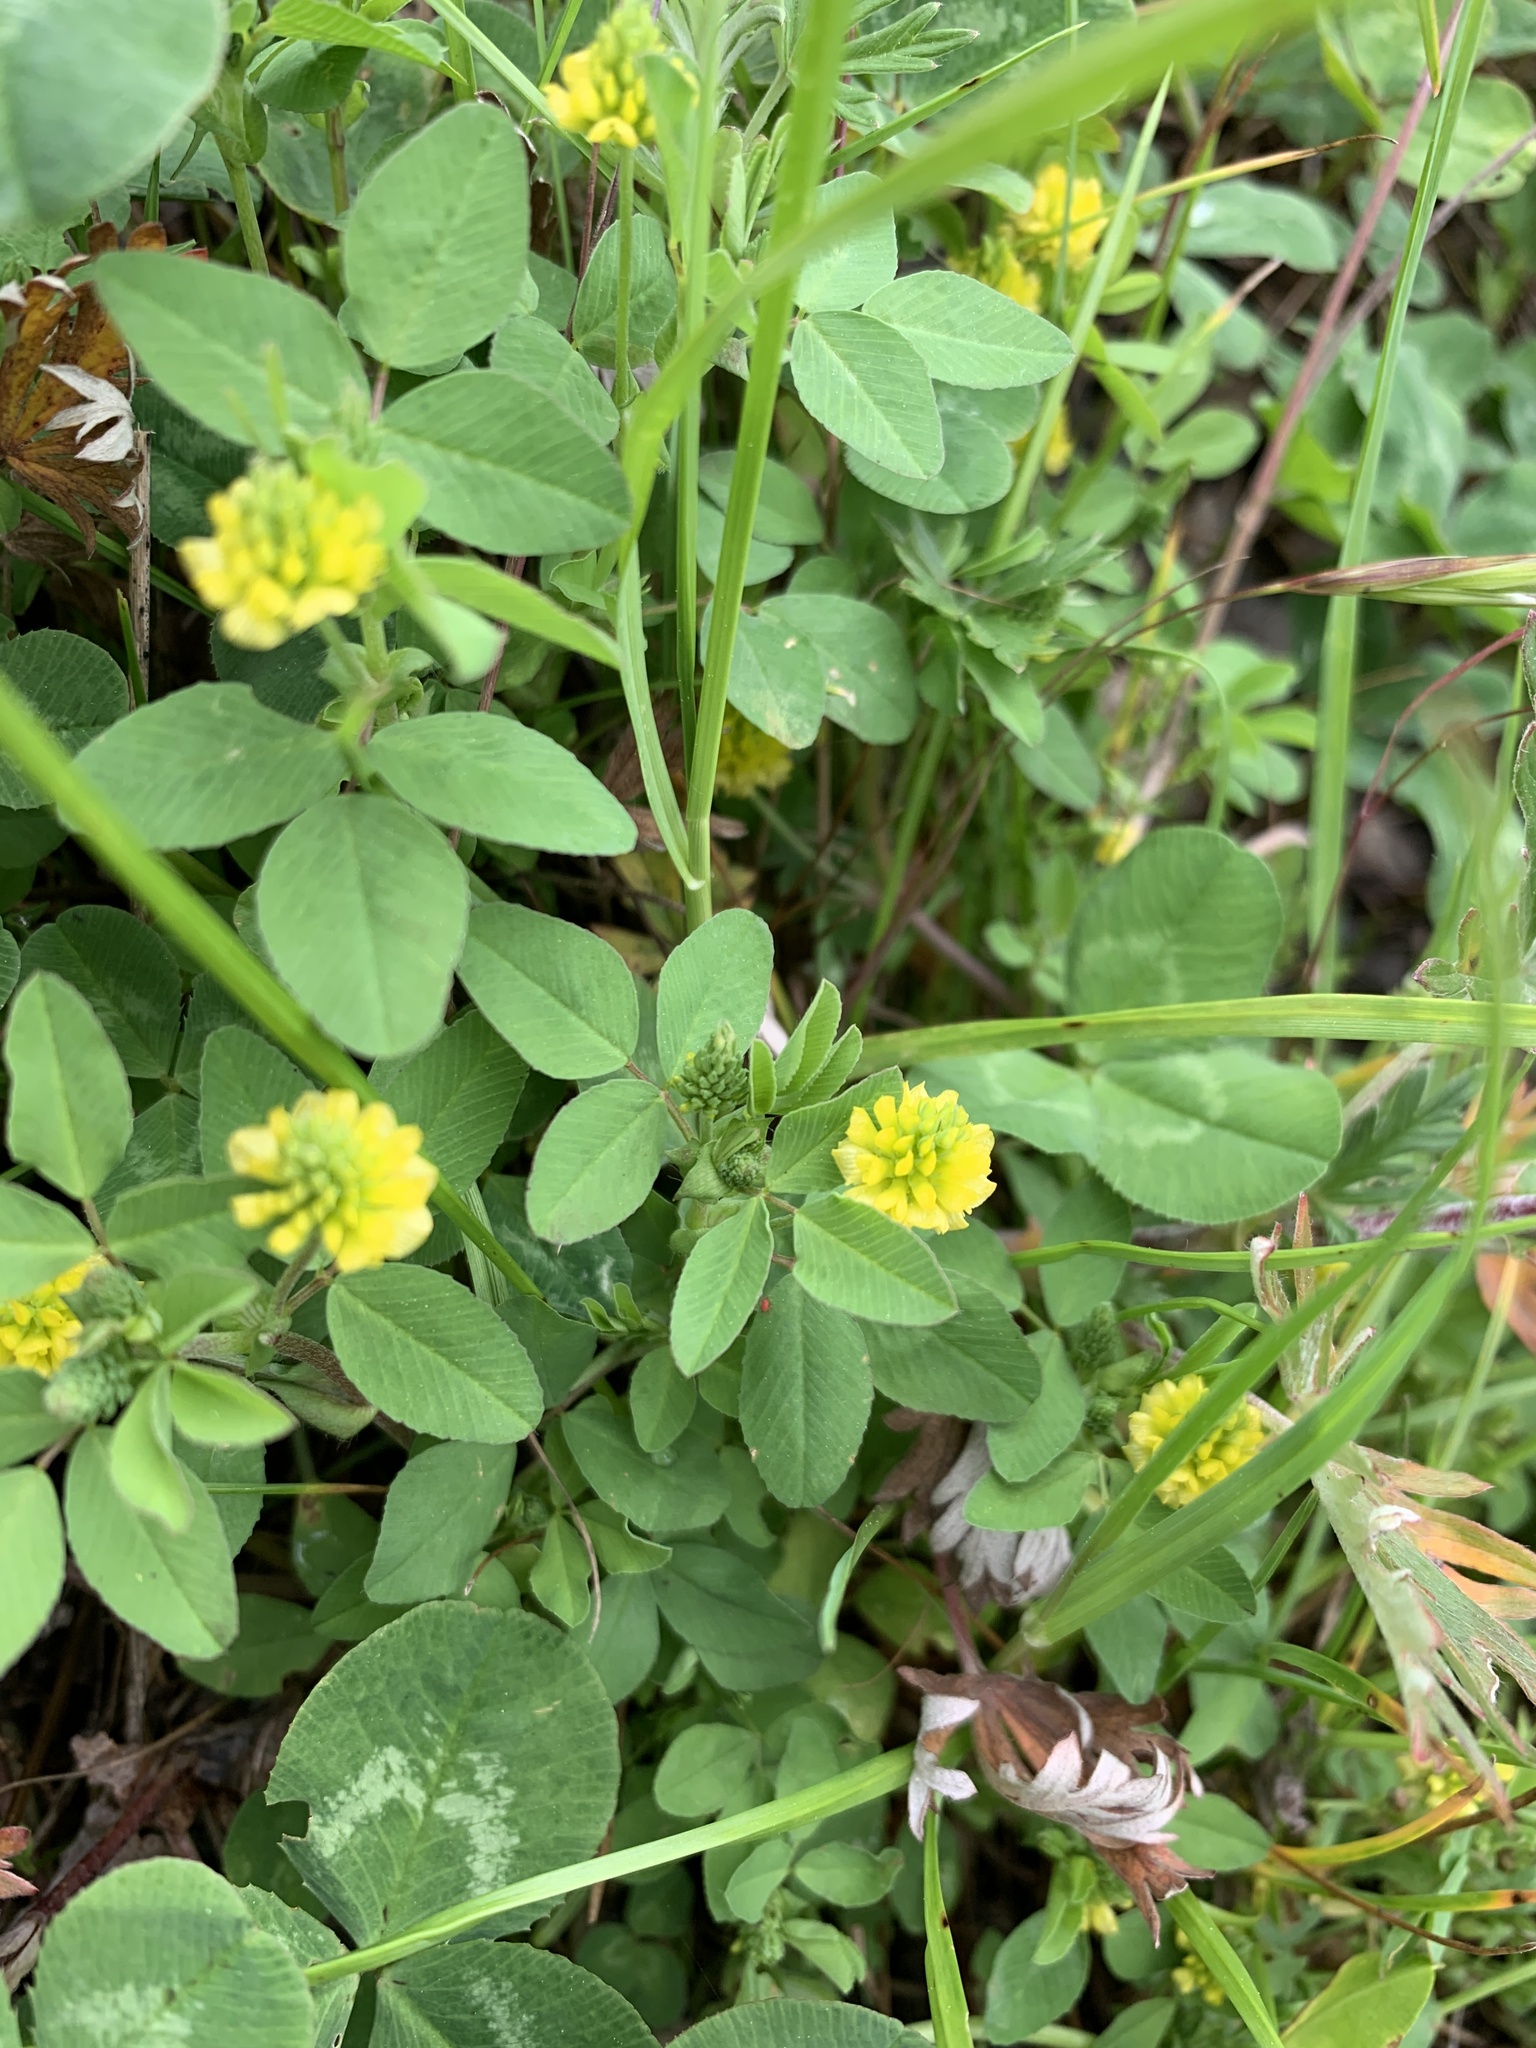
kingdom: Plantae
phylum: Tracheophyta
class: Magnoliopsida
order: Fabales
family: Fabaceae
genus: Trifolium
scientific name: Trifolium campestre
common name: Field clover
